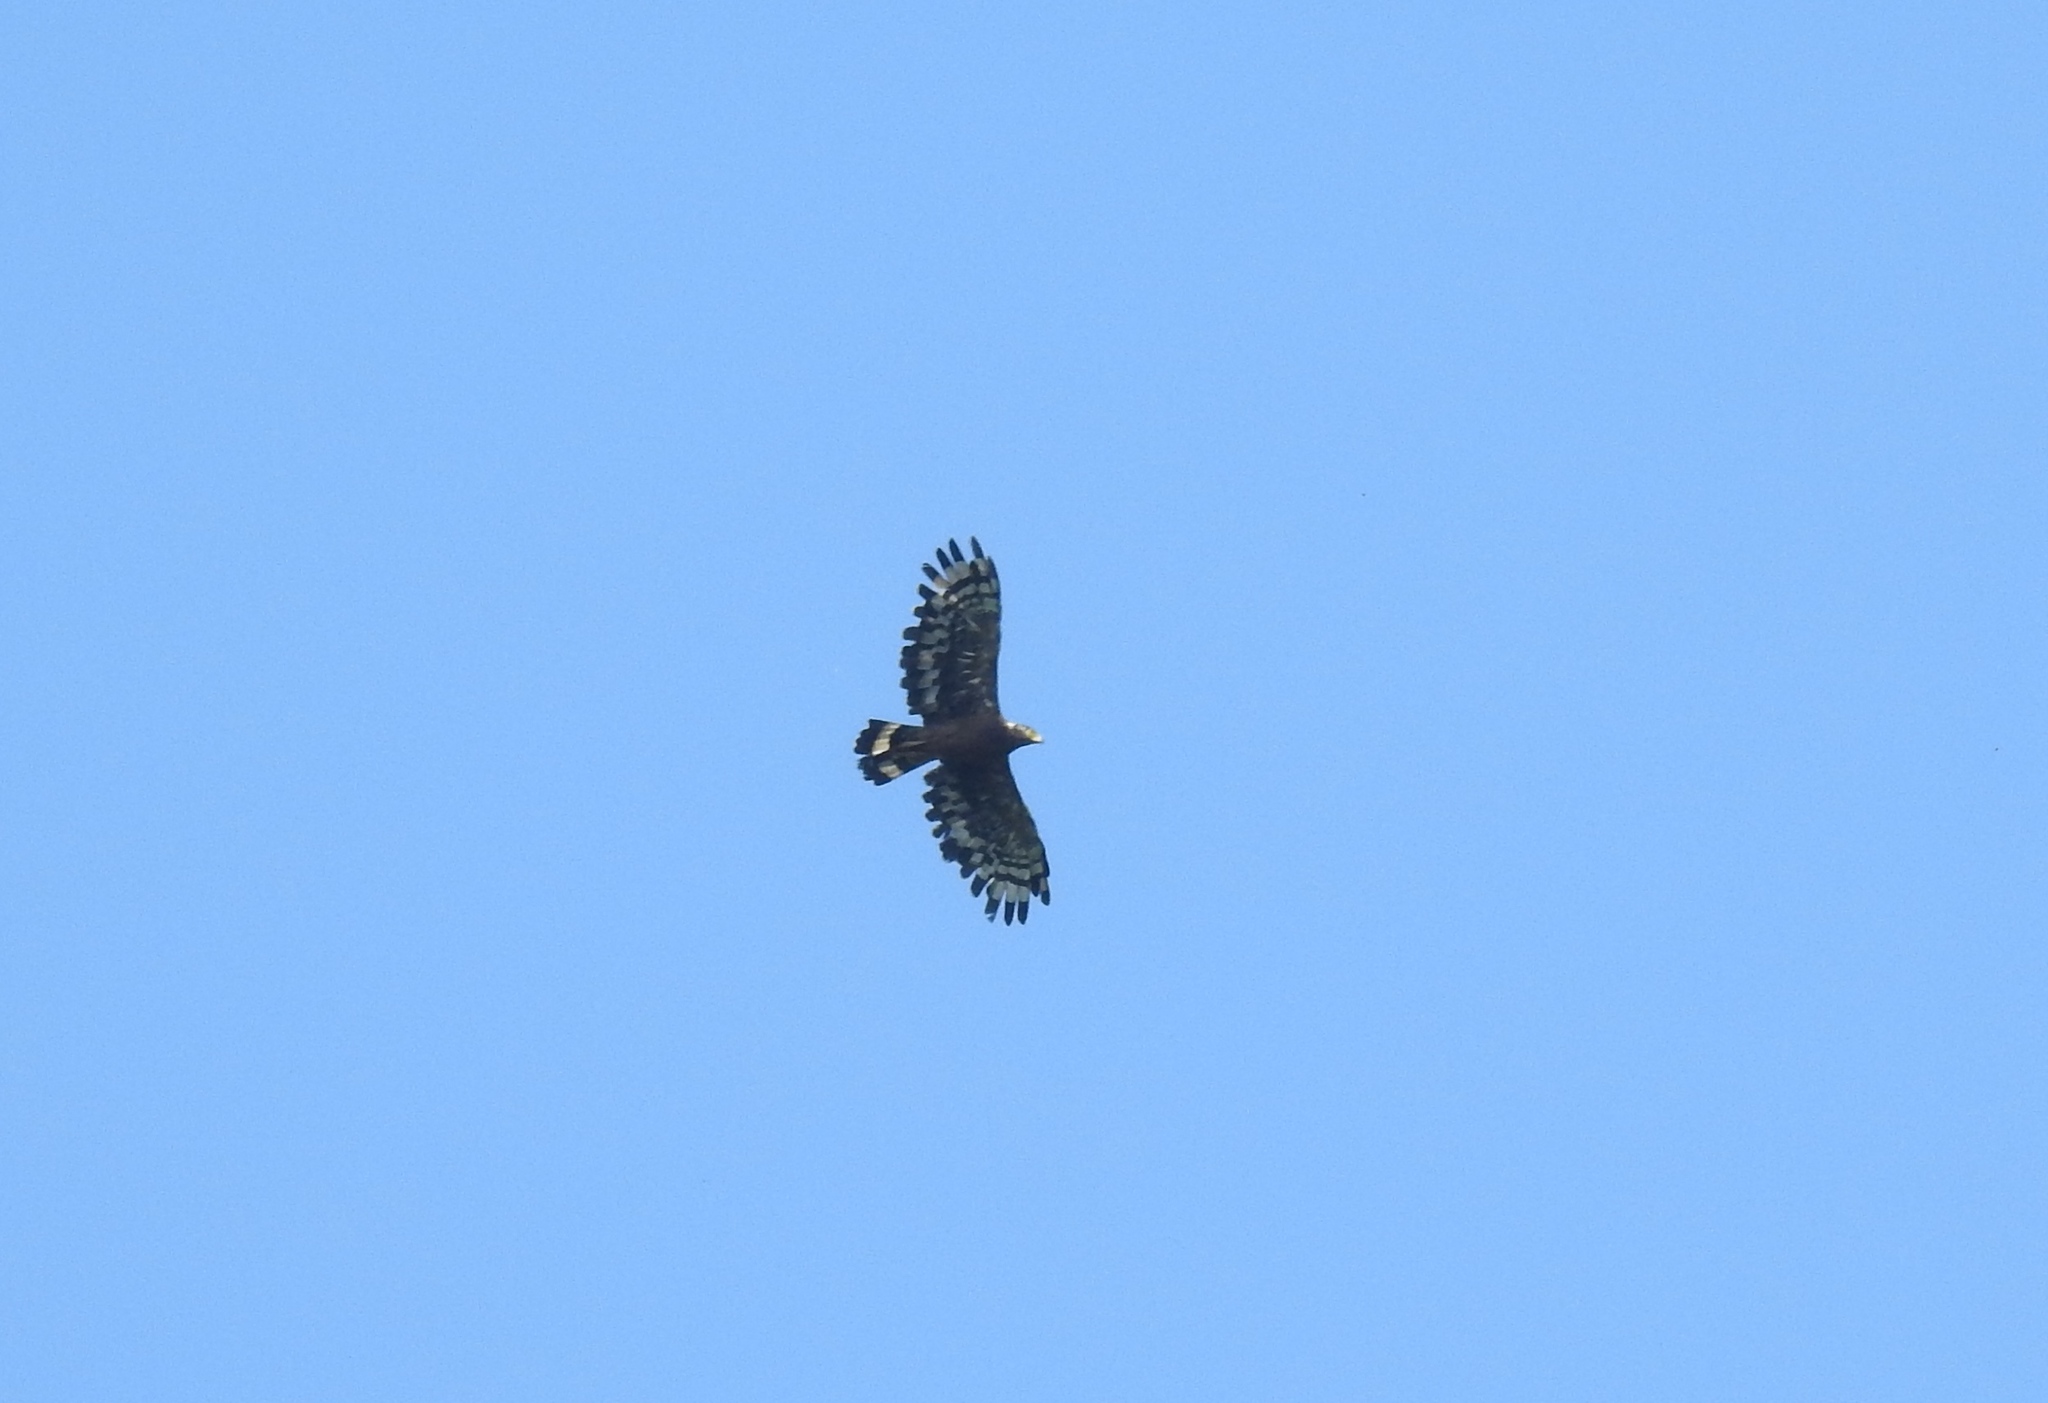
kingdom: Animalia
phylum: Chordata
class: Aves
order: Accipitriformes
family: Accipitridae
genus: Spilornis
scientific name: Spilornis cheela
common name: Crested serpent eagle
